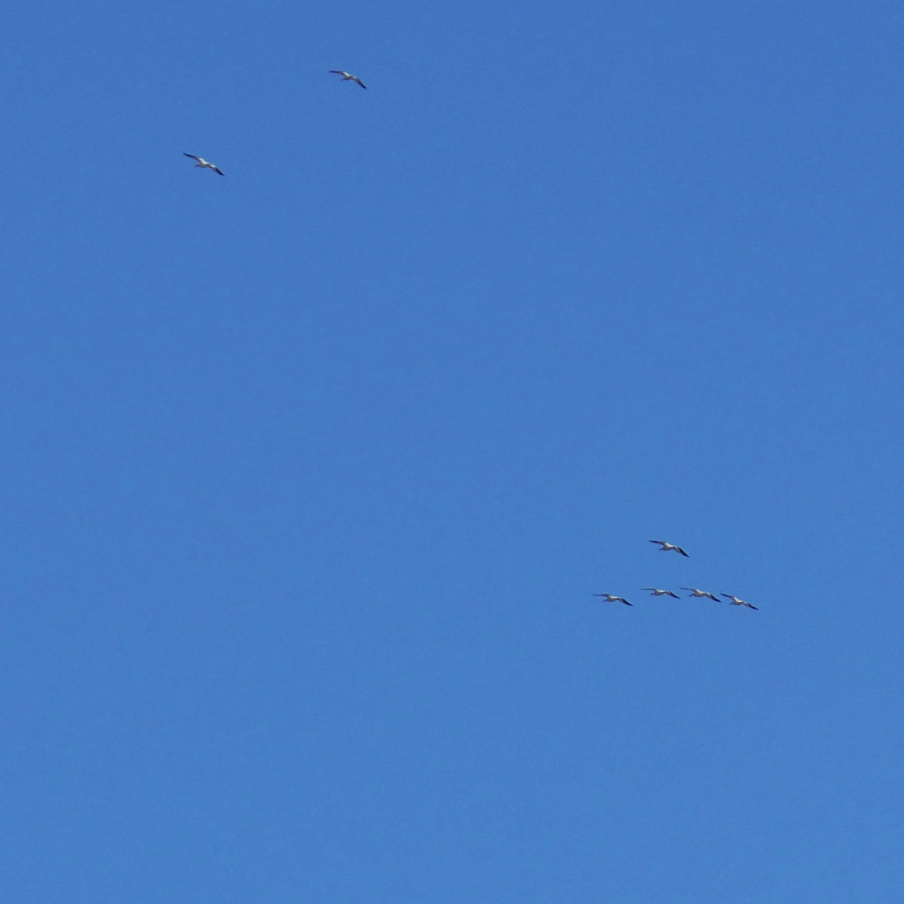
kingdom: Animalia
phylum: Chordata
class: Aves
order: Pelecaniformes
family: Pelecanidae
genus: Pelecanus
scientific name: Pelecanus erythrorhynchos
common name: American white pelican
